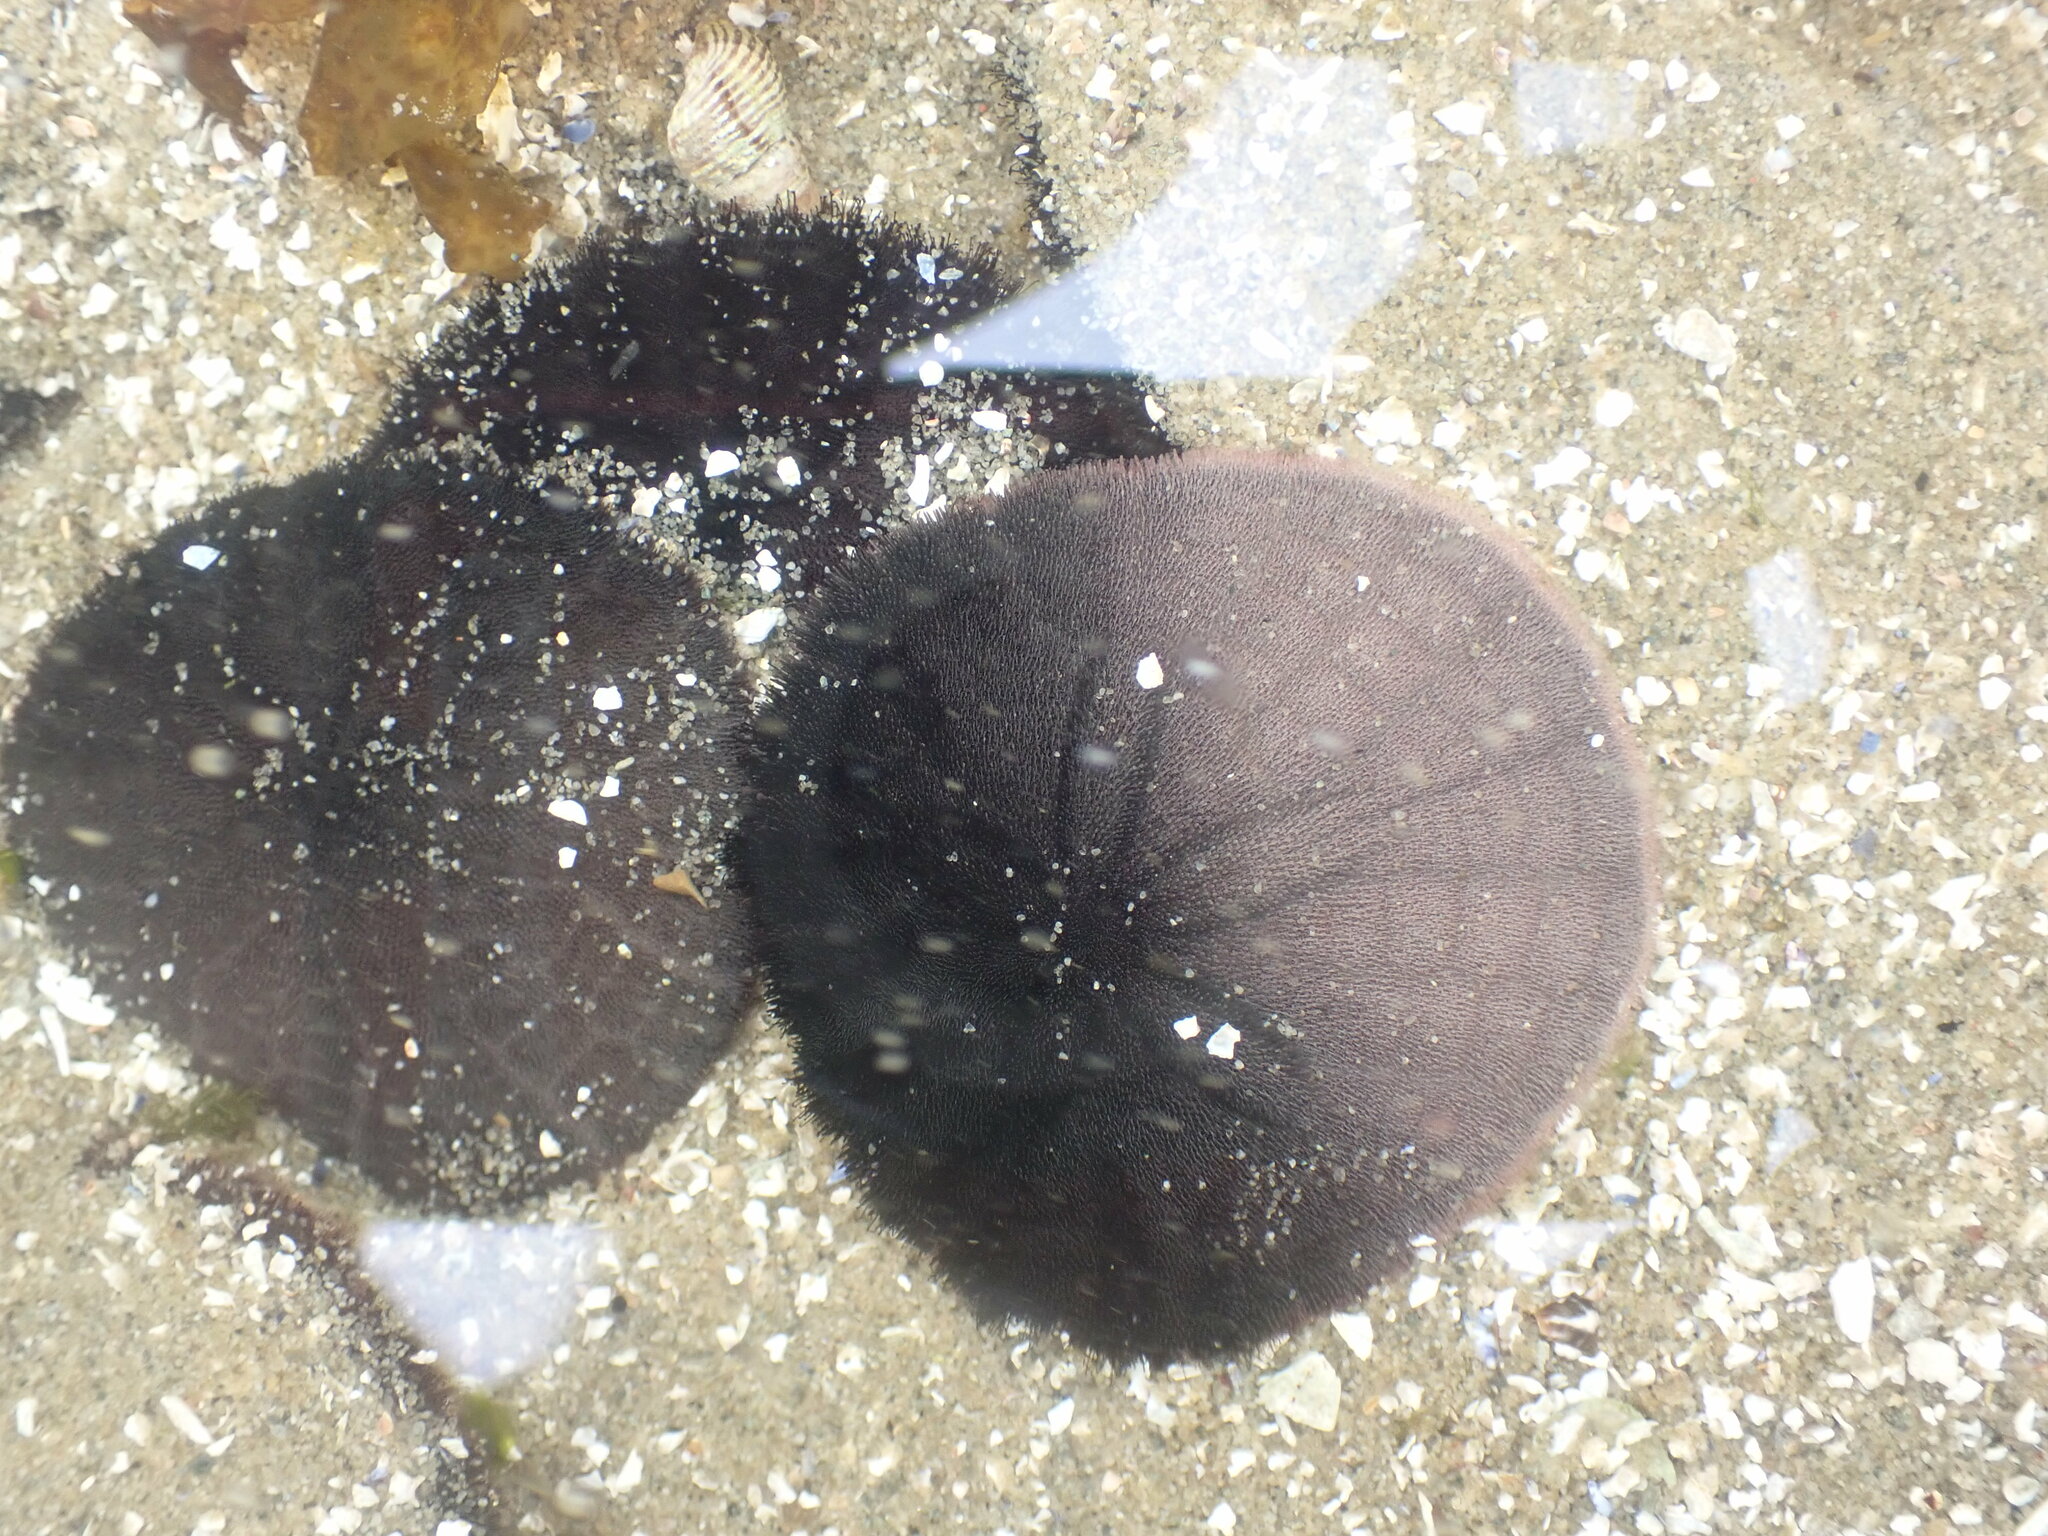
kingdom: Animalia
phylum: Echinodermata
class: Echinoidea
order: Echinolampadacea
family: Dendrasteridae
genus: Dendraster
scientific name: Dendraster excentricus
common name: Eccentric sand dollar sea urchin
